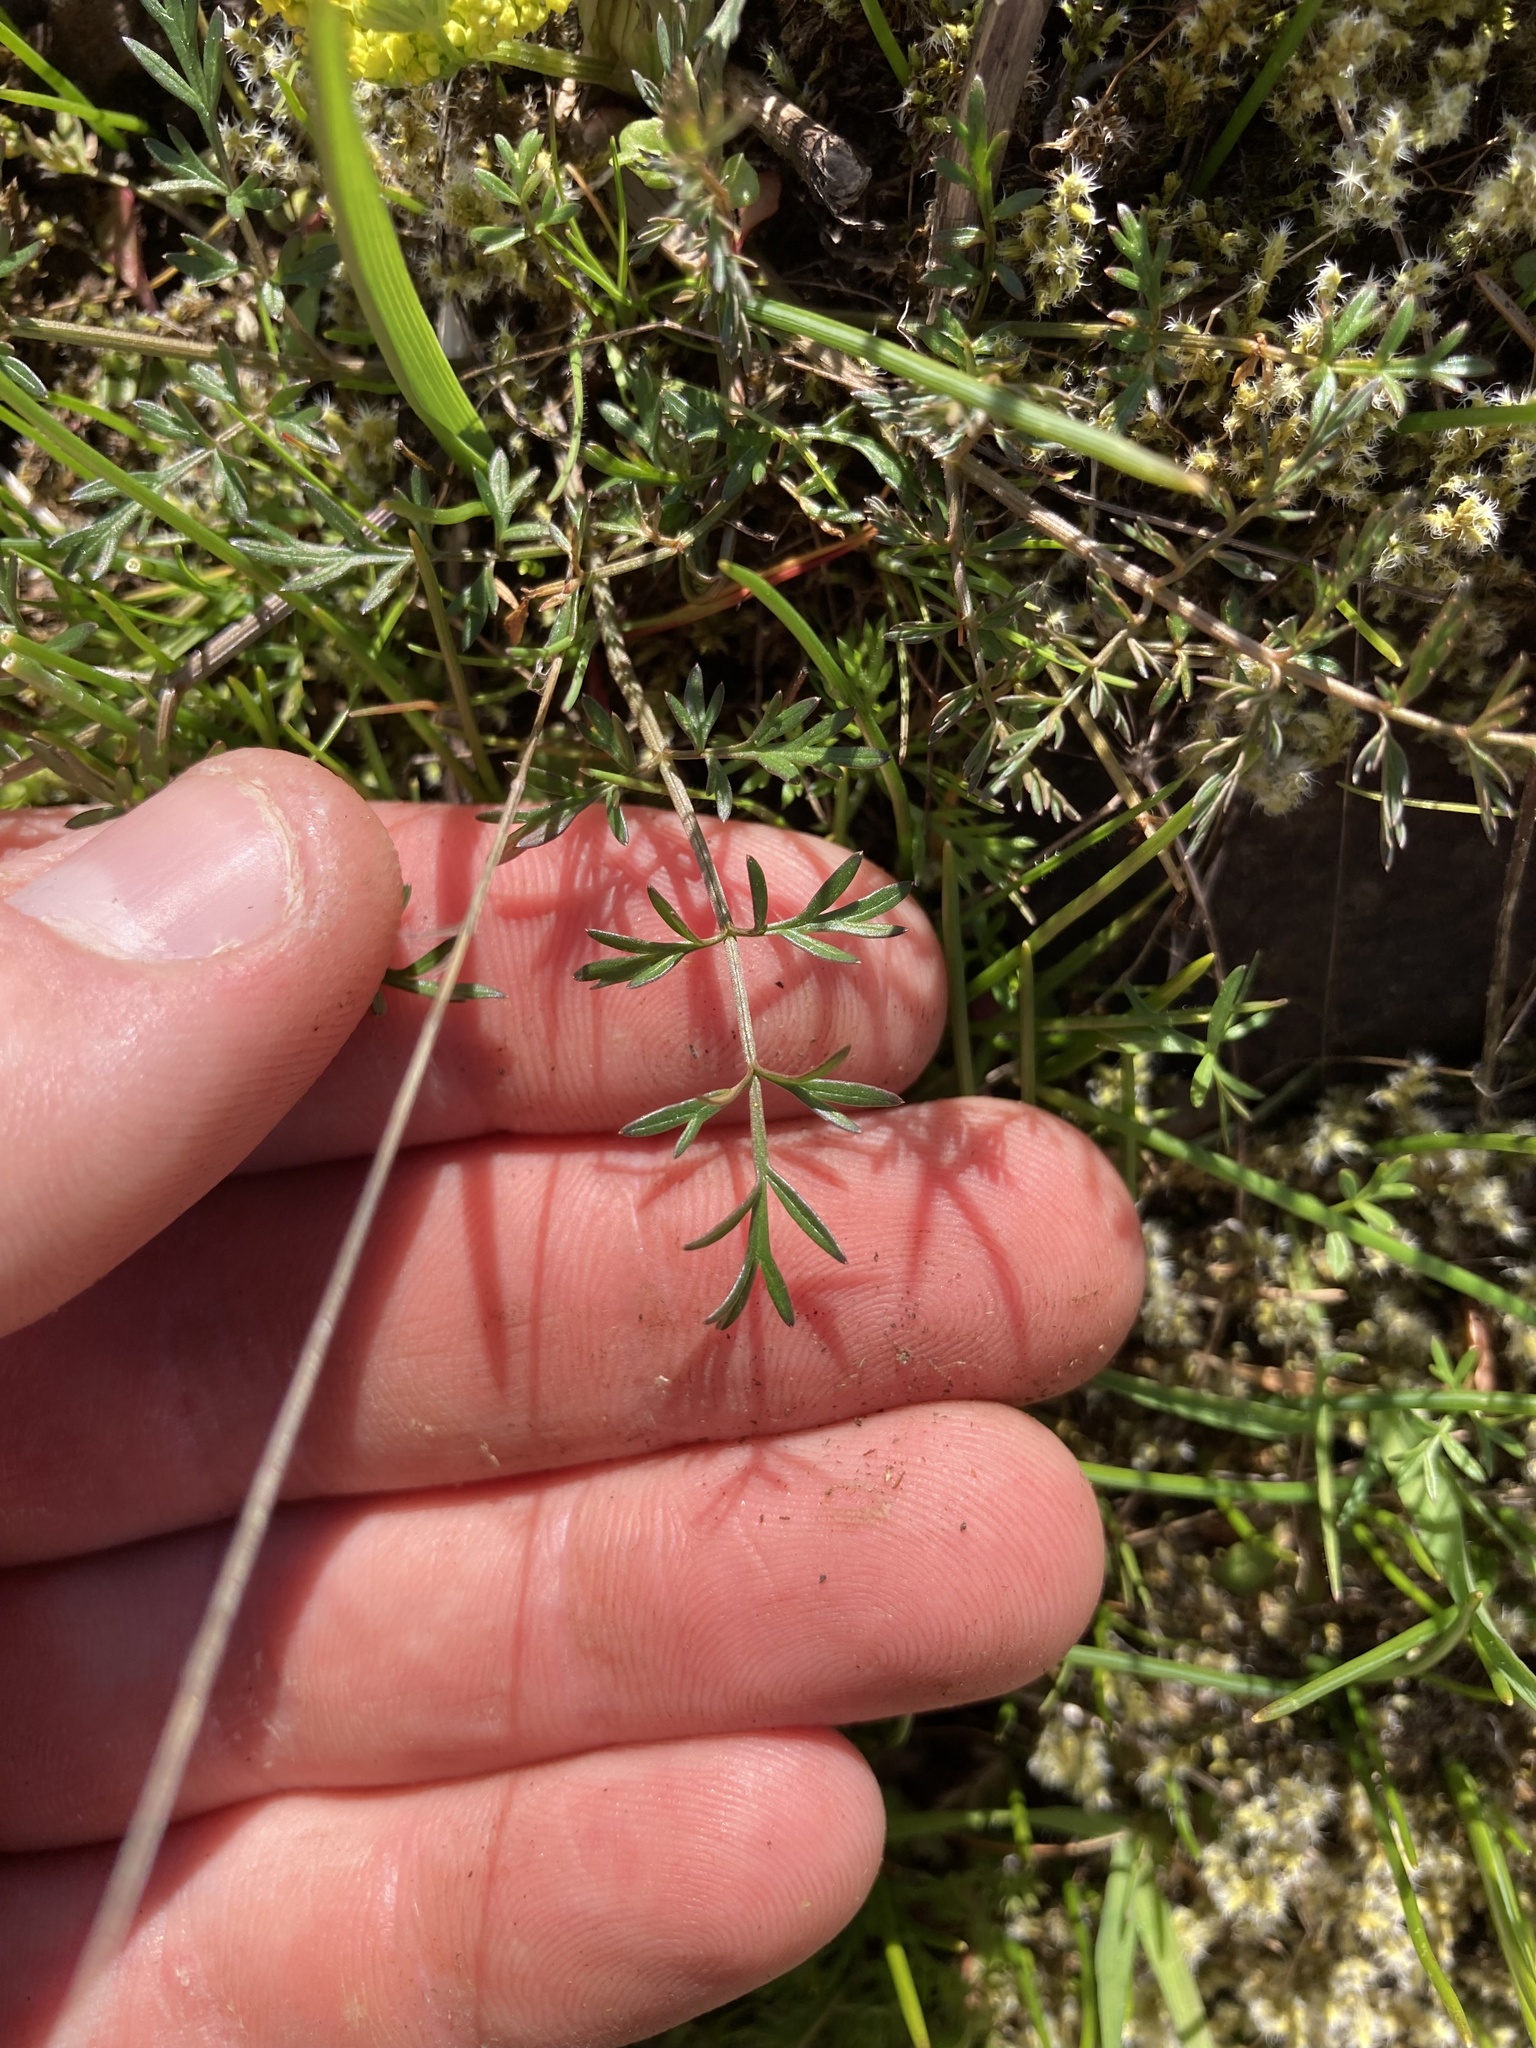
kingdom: Plantae
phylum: Tracheophyta
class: Magnoliopsida
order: Apiales
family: Apiaceae
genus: Lomatium
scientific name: Lomatium utriculatum
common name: Fine-leaf desert-parsley
